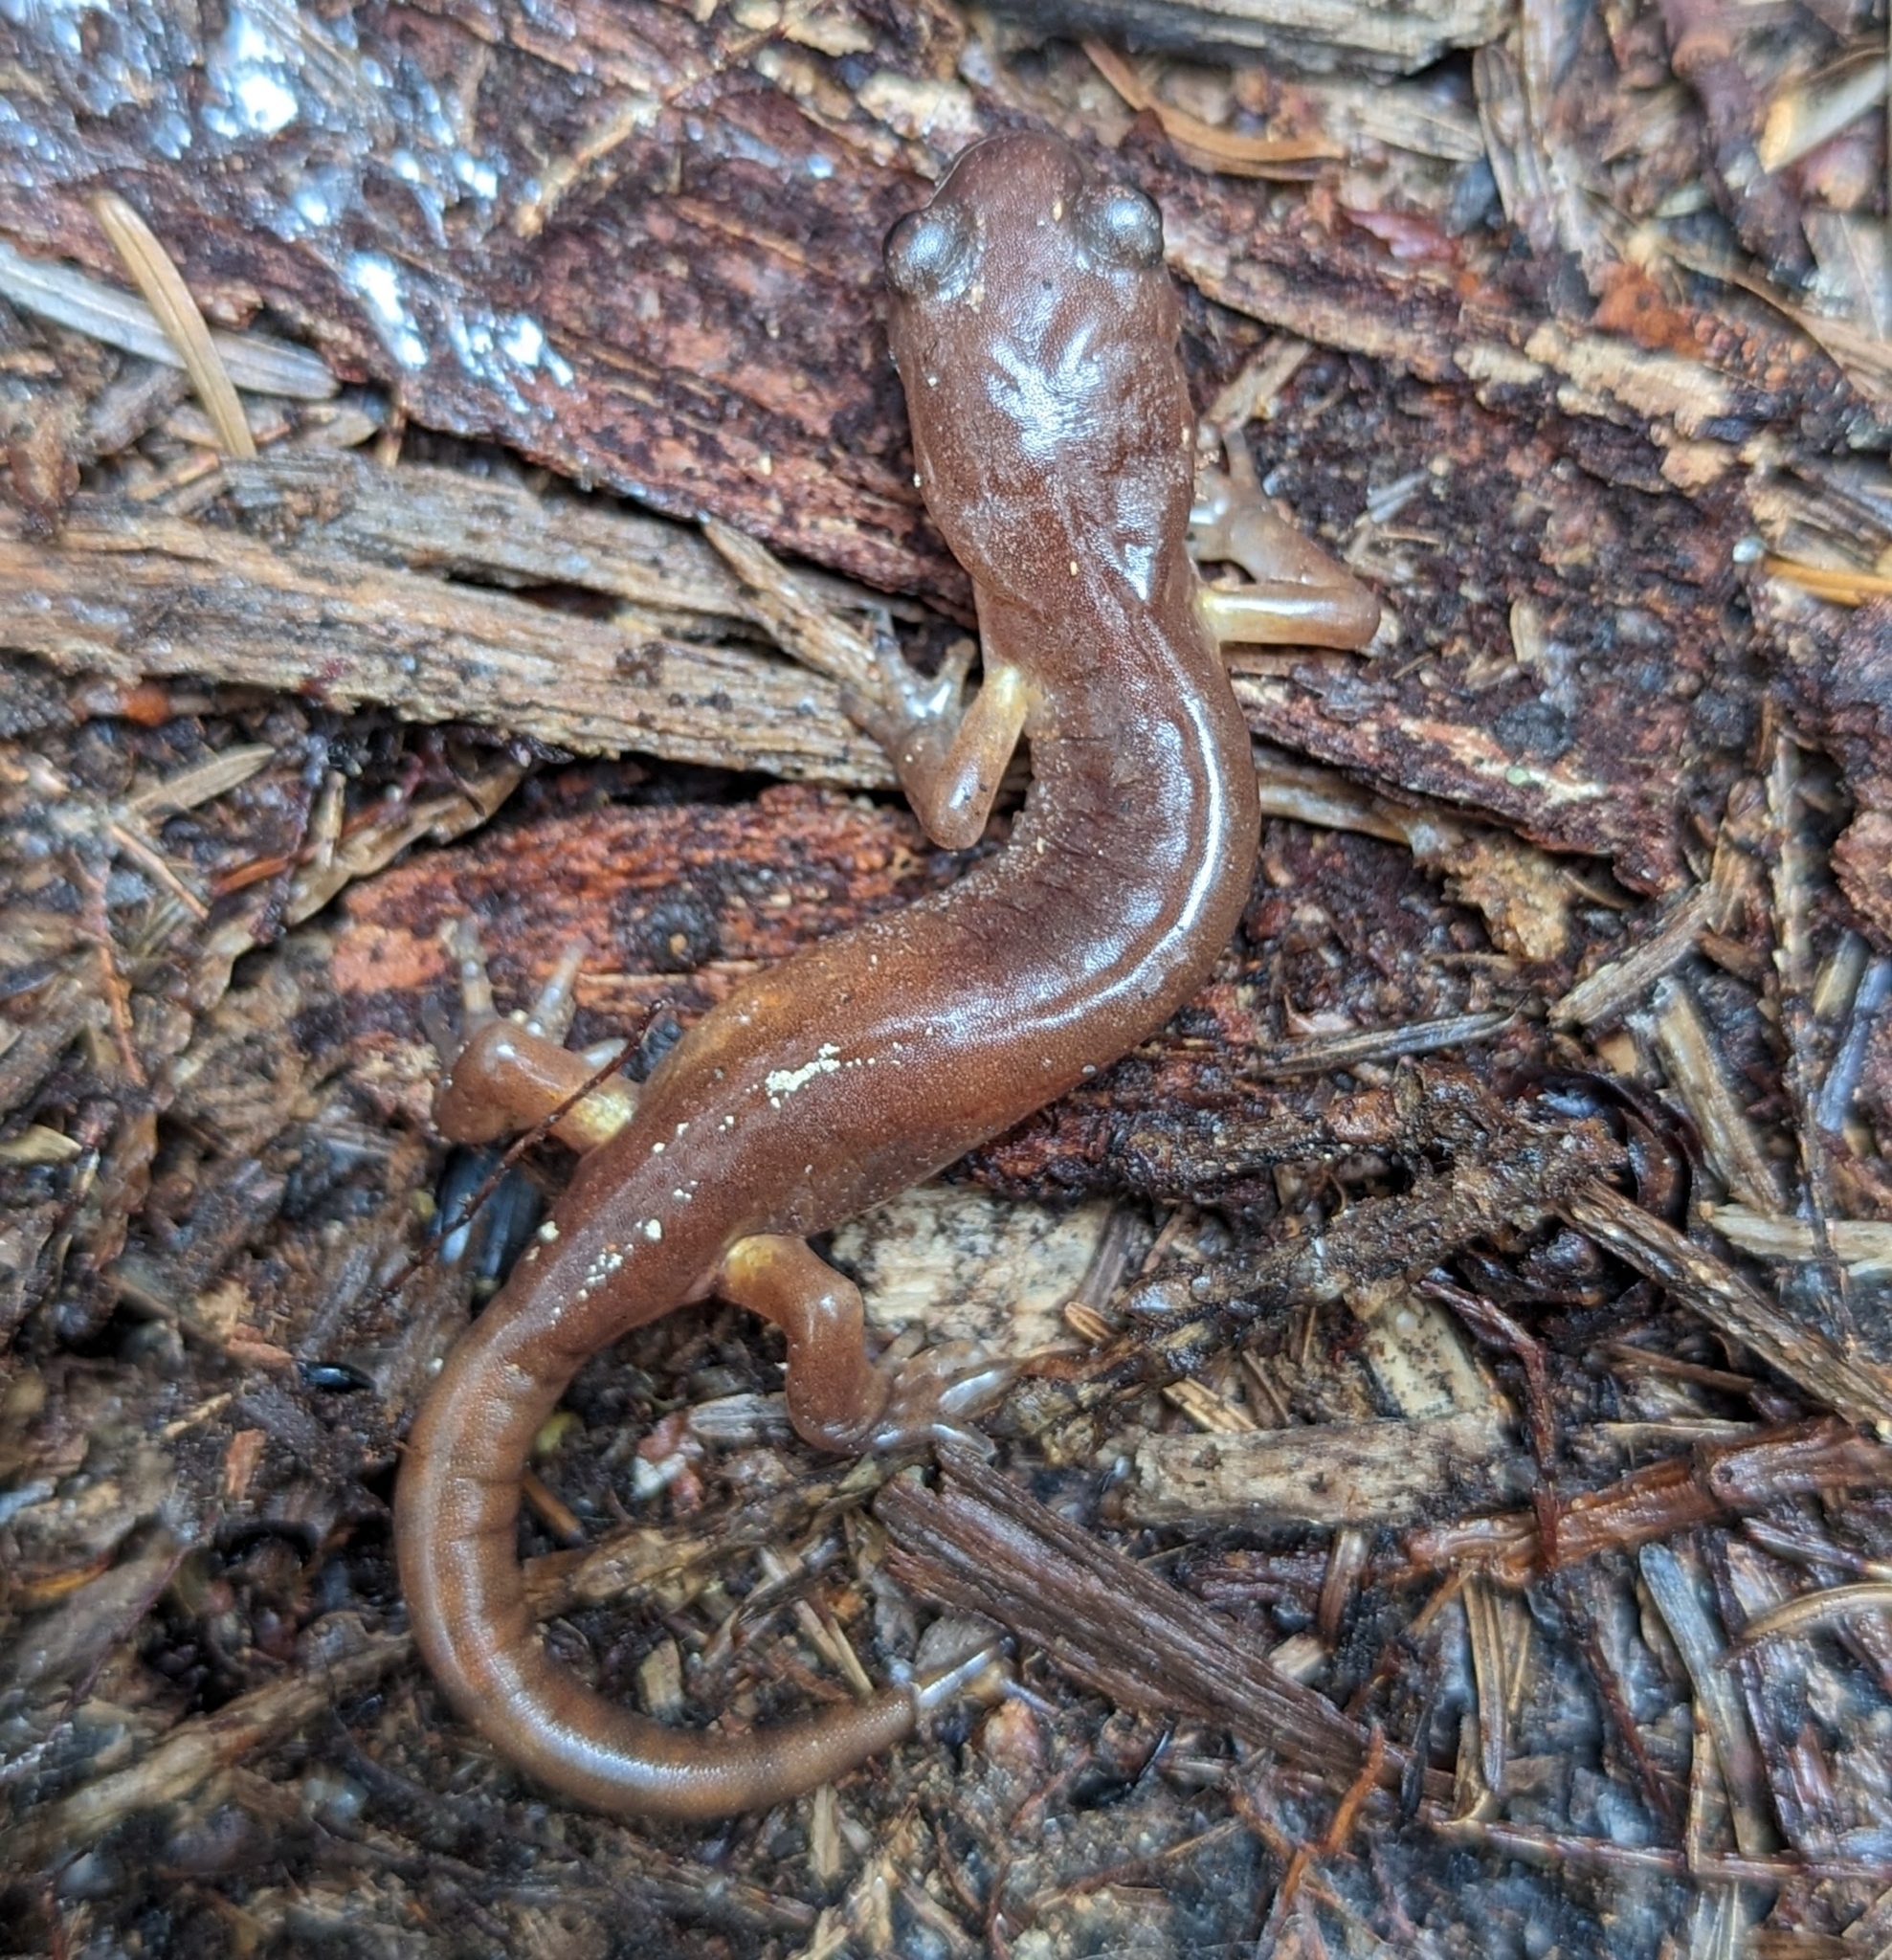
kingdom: Animalia
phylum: Chordata
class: Amphibia
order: Caudata
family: Plethodontidae
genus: Ensatina
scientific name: Ensatina eschscholtzii
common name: Ensatina
